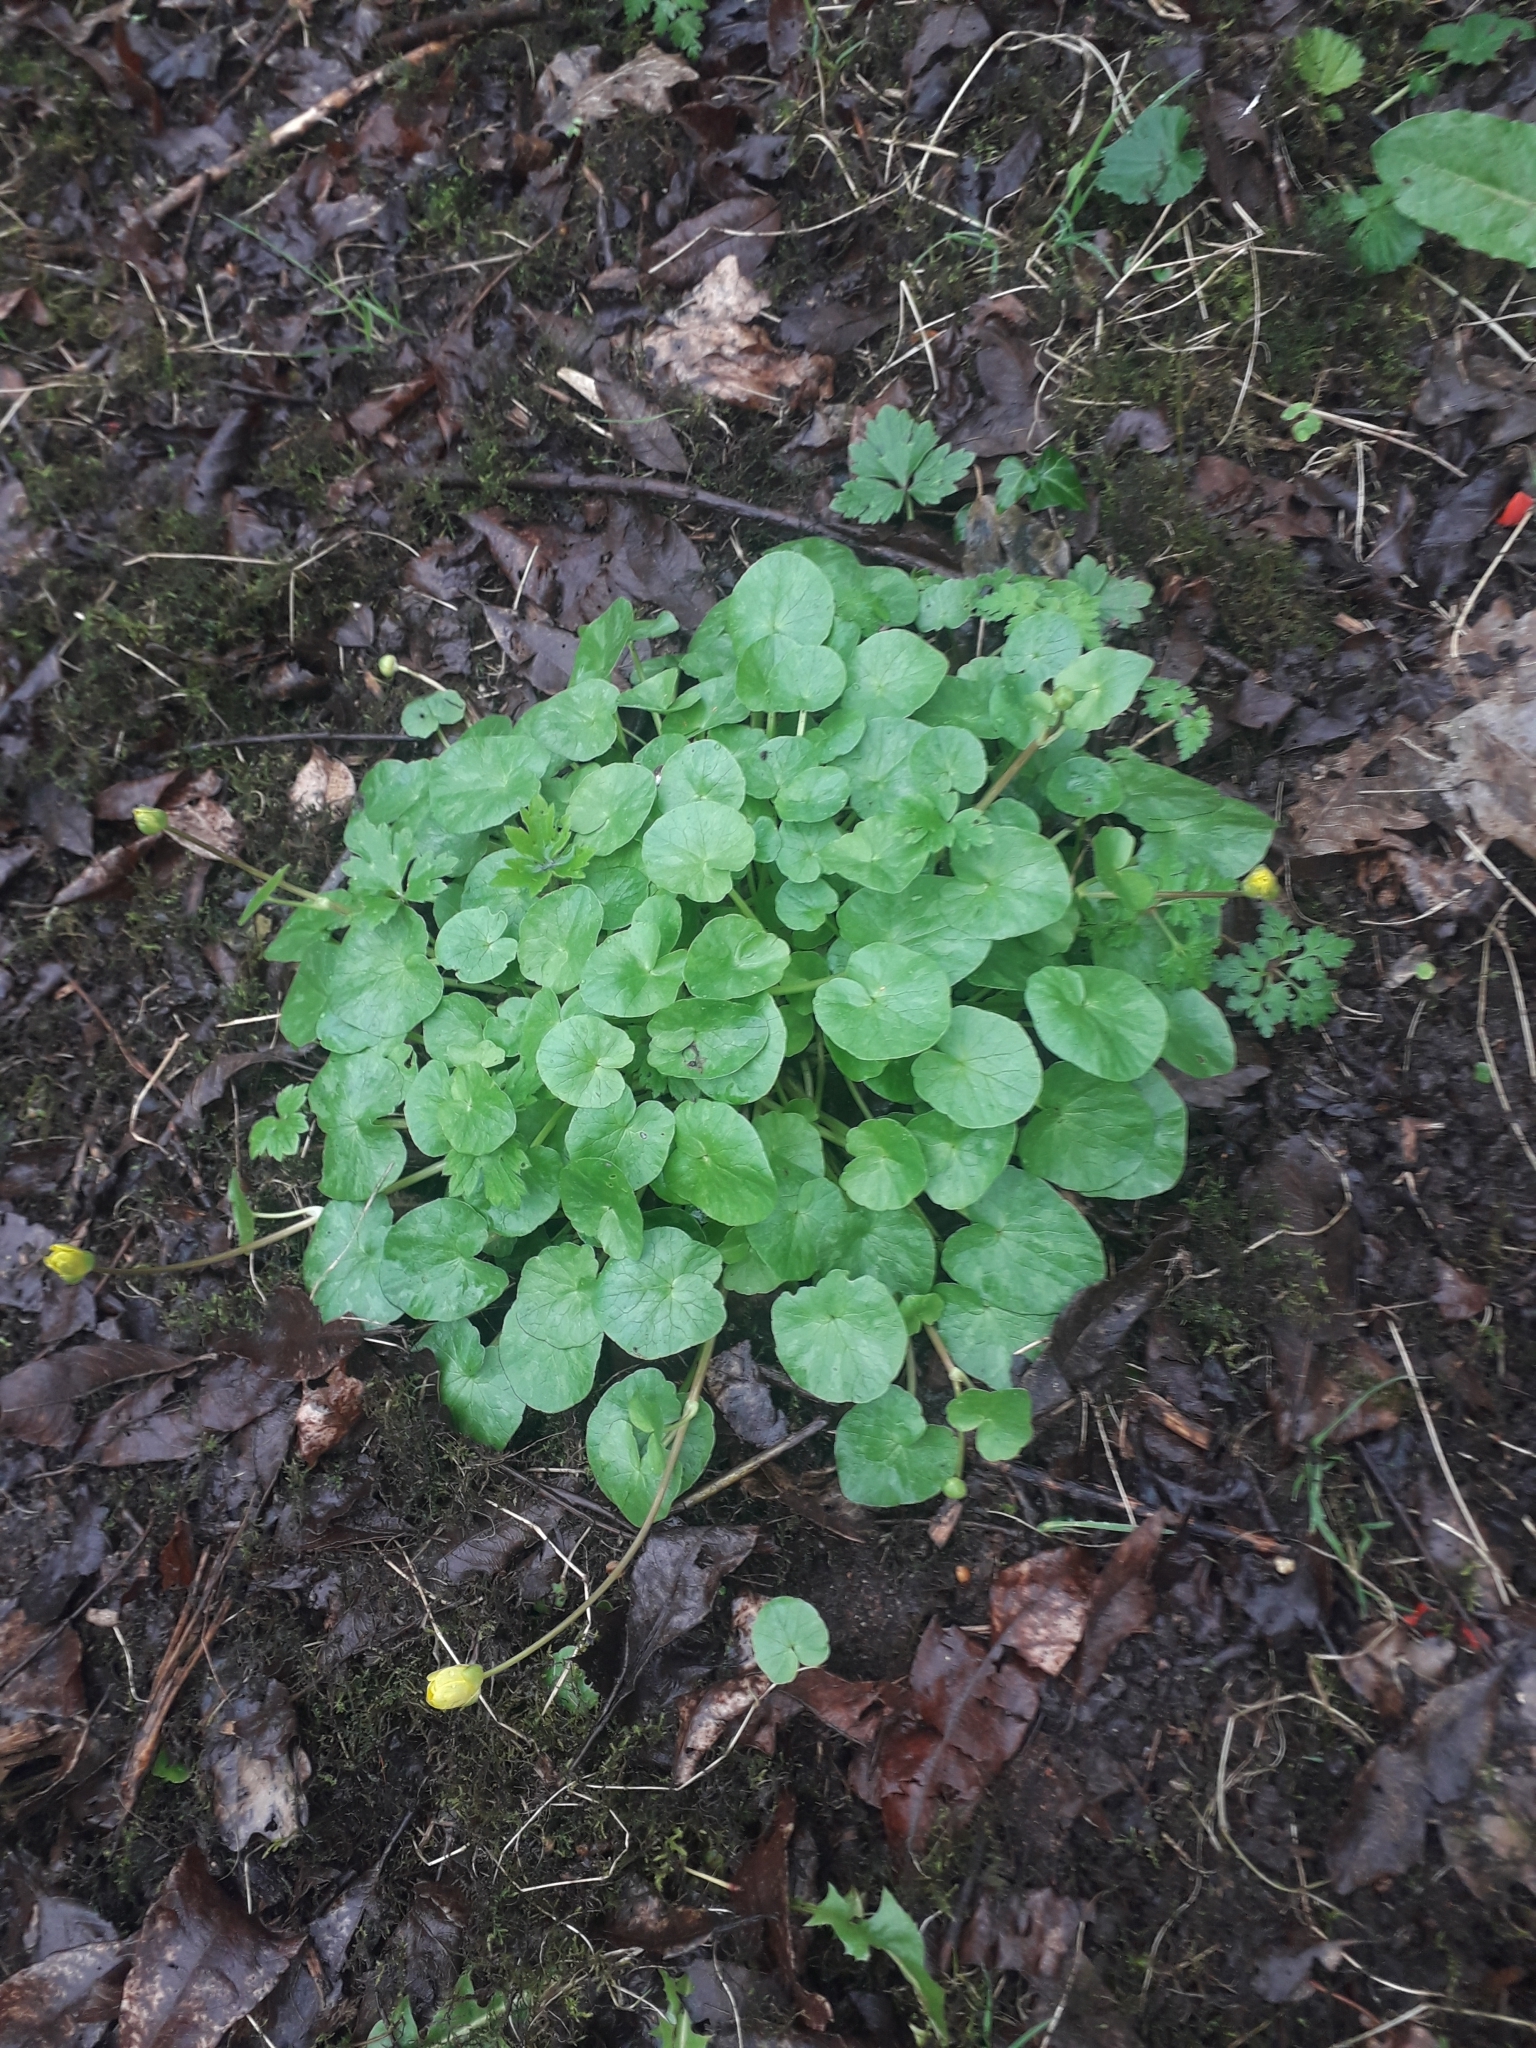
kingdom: Plantae
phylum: Tracheophyta
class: Magnoliopsida
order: Ranunculales
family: Ranunculaceae
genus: Ficaria
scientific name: Ficaria verna
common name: Lesser celandine
